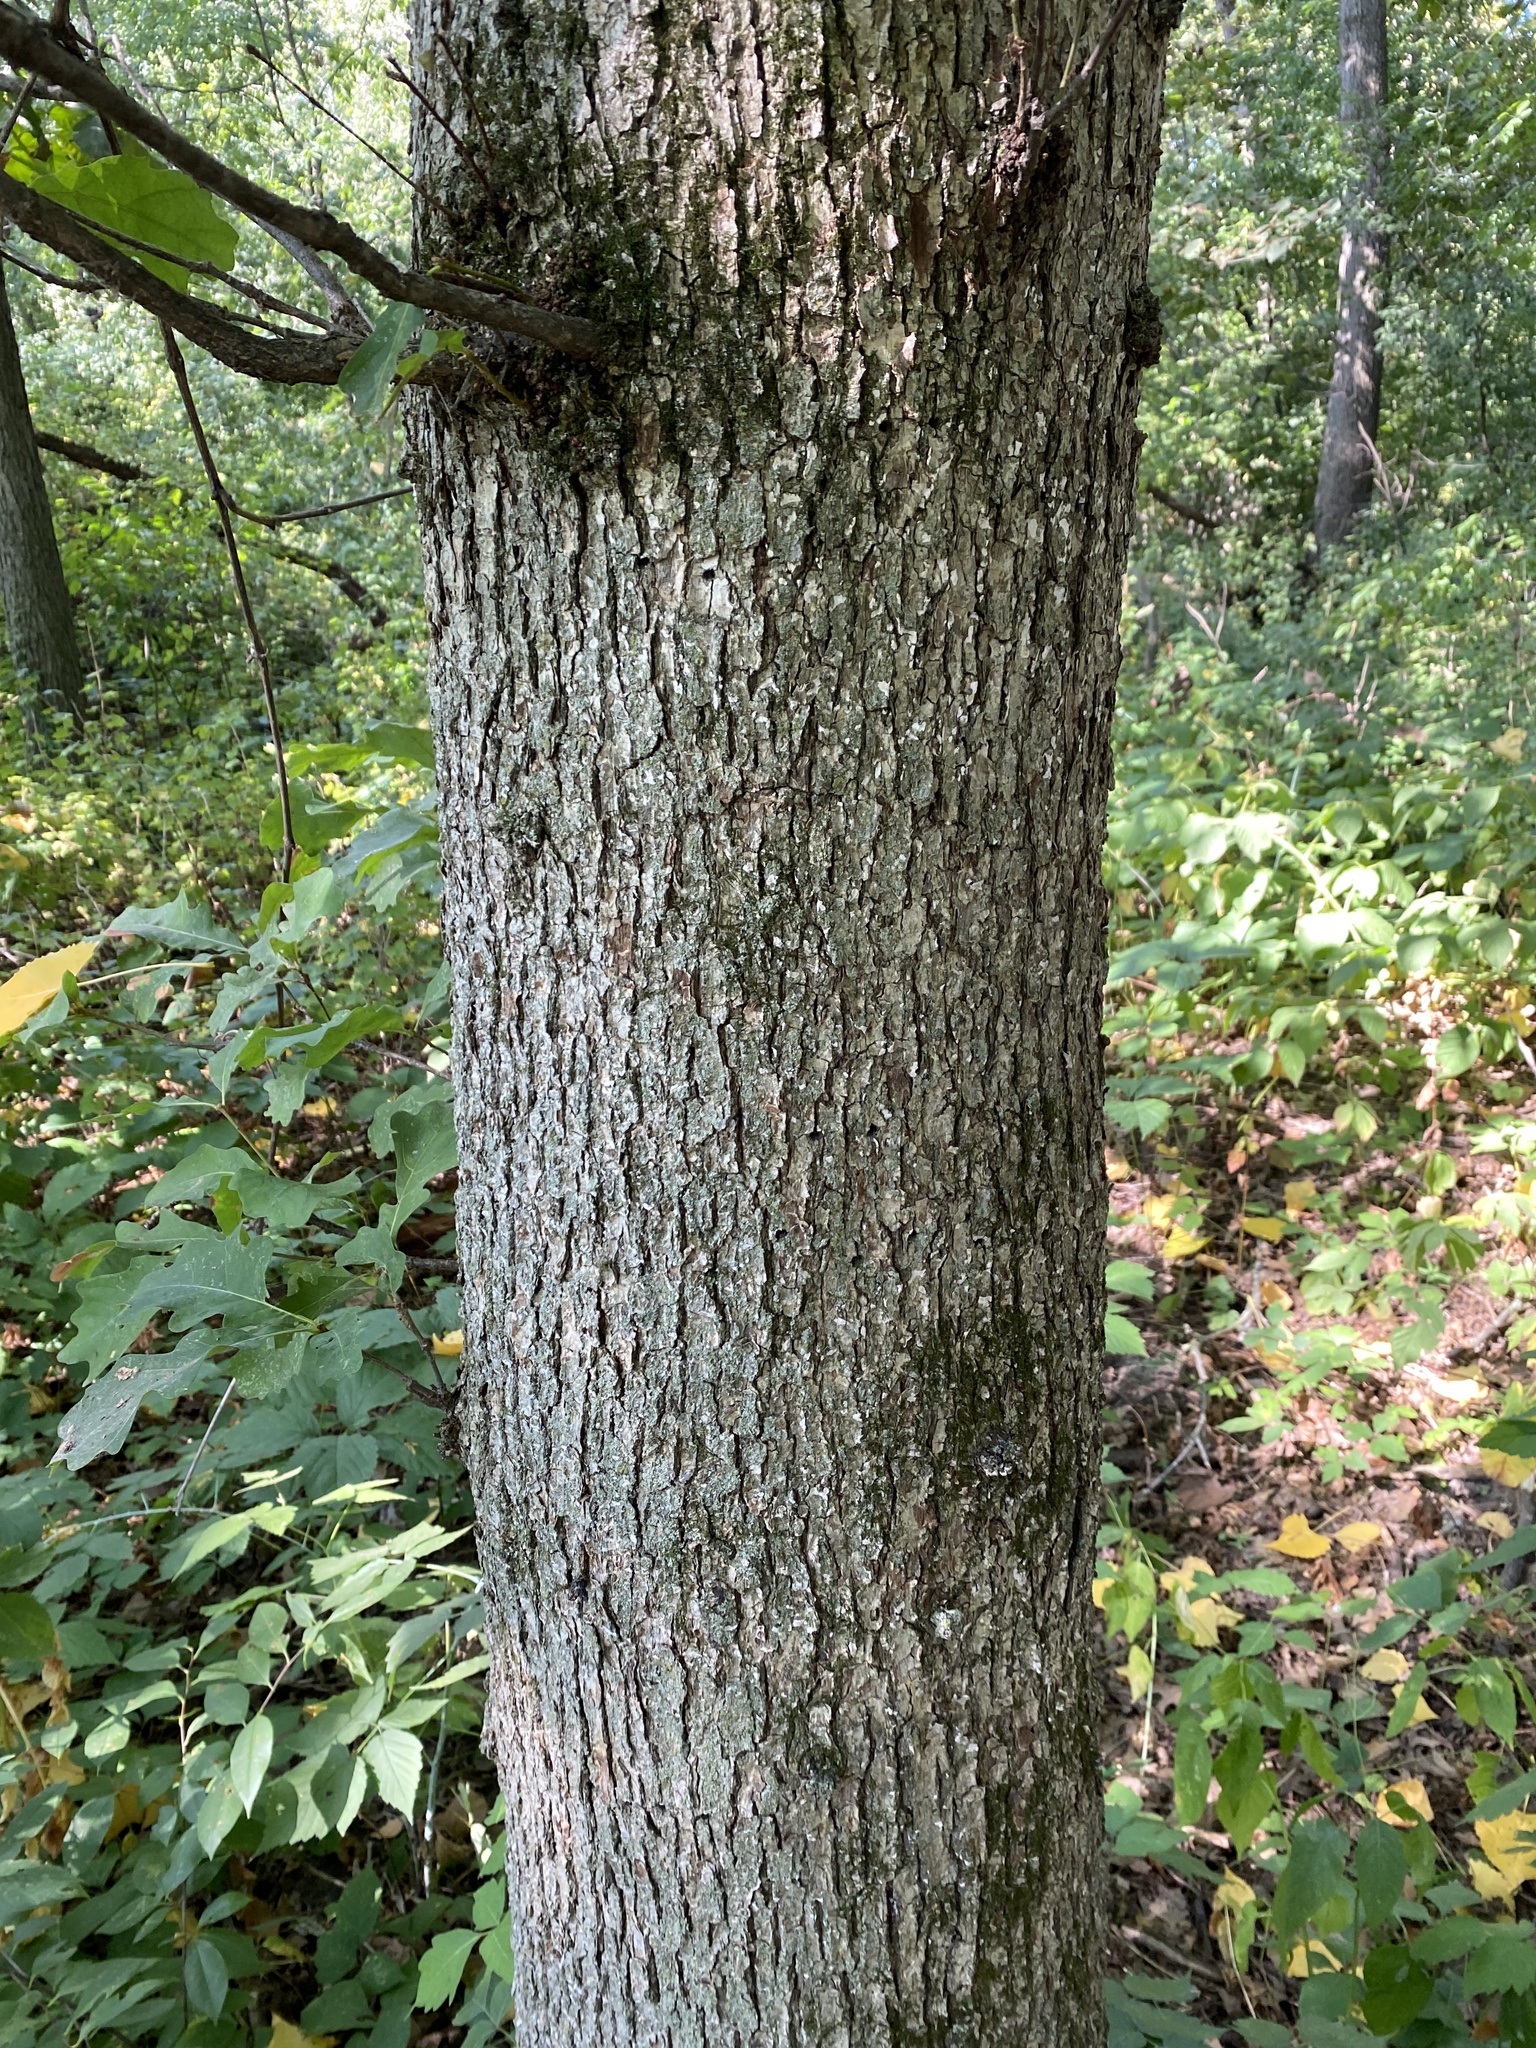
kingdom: Plantae
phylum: Tracheophyta
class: Magnoliopsida
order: Fagales
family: Fagaceae
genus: Quercus
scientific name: Quercus alba
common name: White oak
